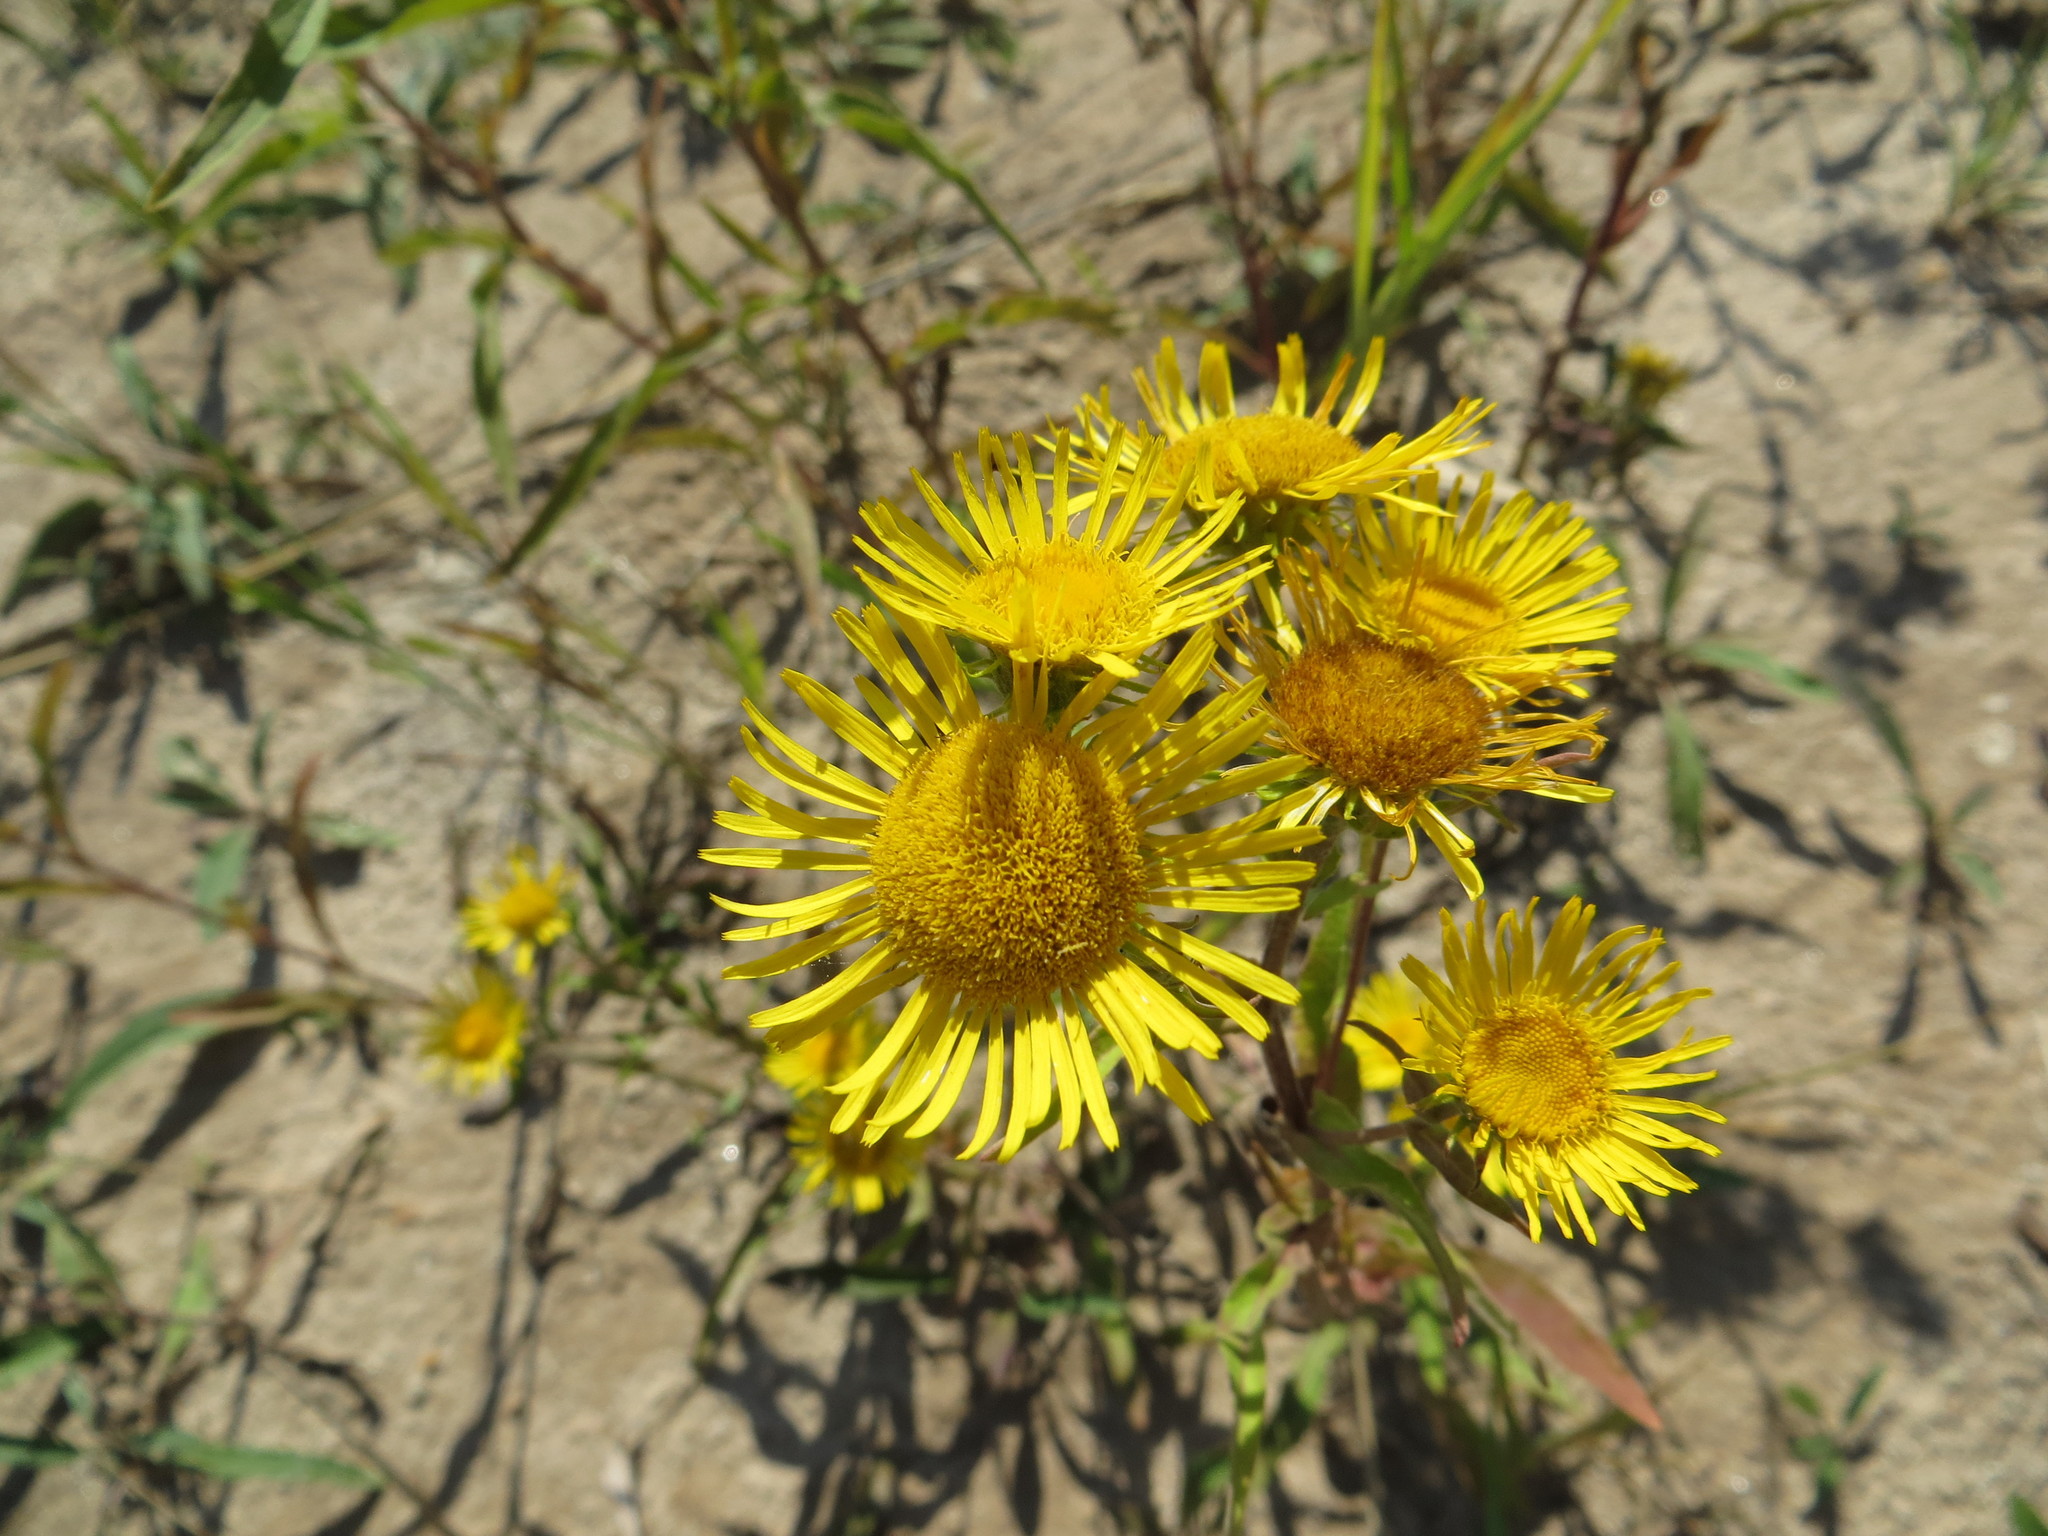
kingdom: Plantae
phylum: Tracheophyta
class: Magnoliopsida
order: Asterales
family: Asteraceae
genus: Pentanema
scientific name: Pentanema britannicum
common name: British elecampane
